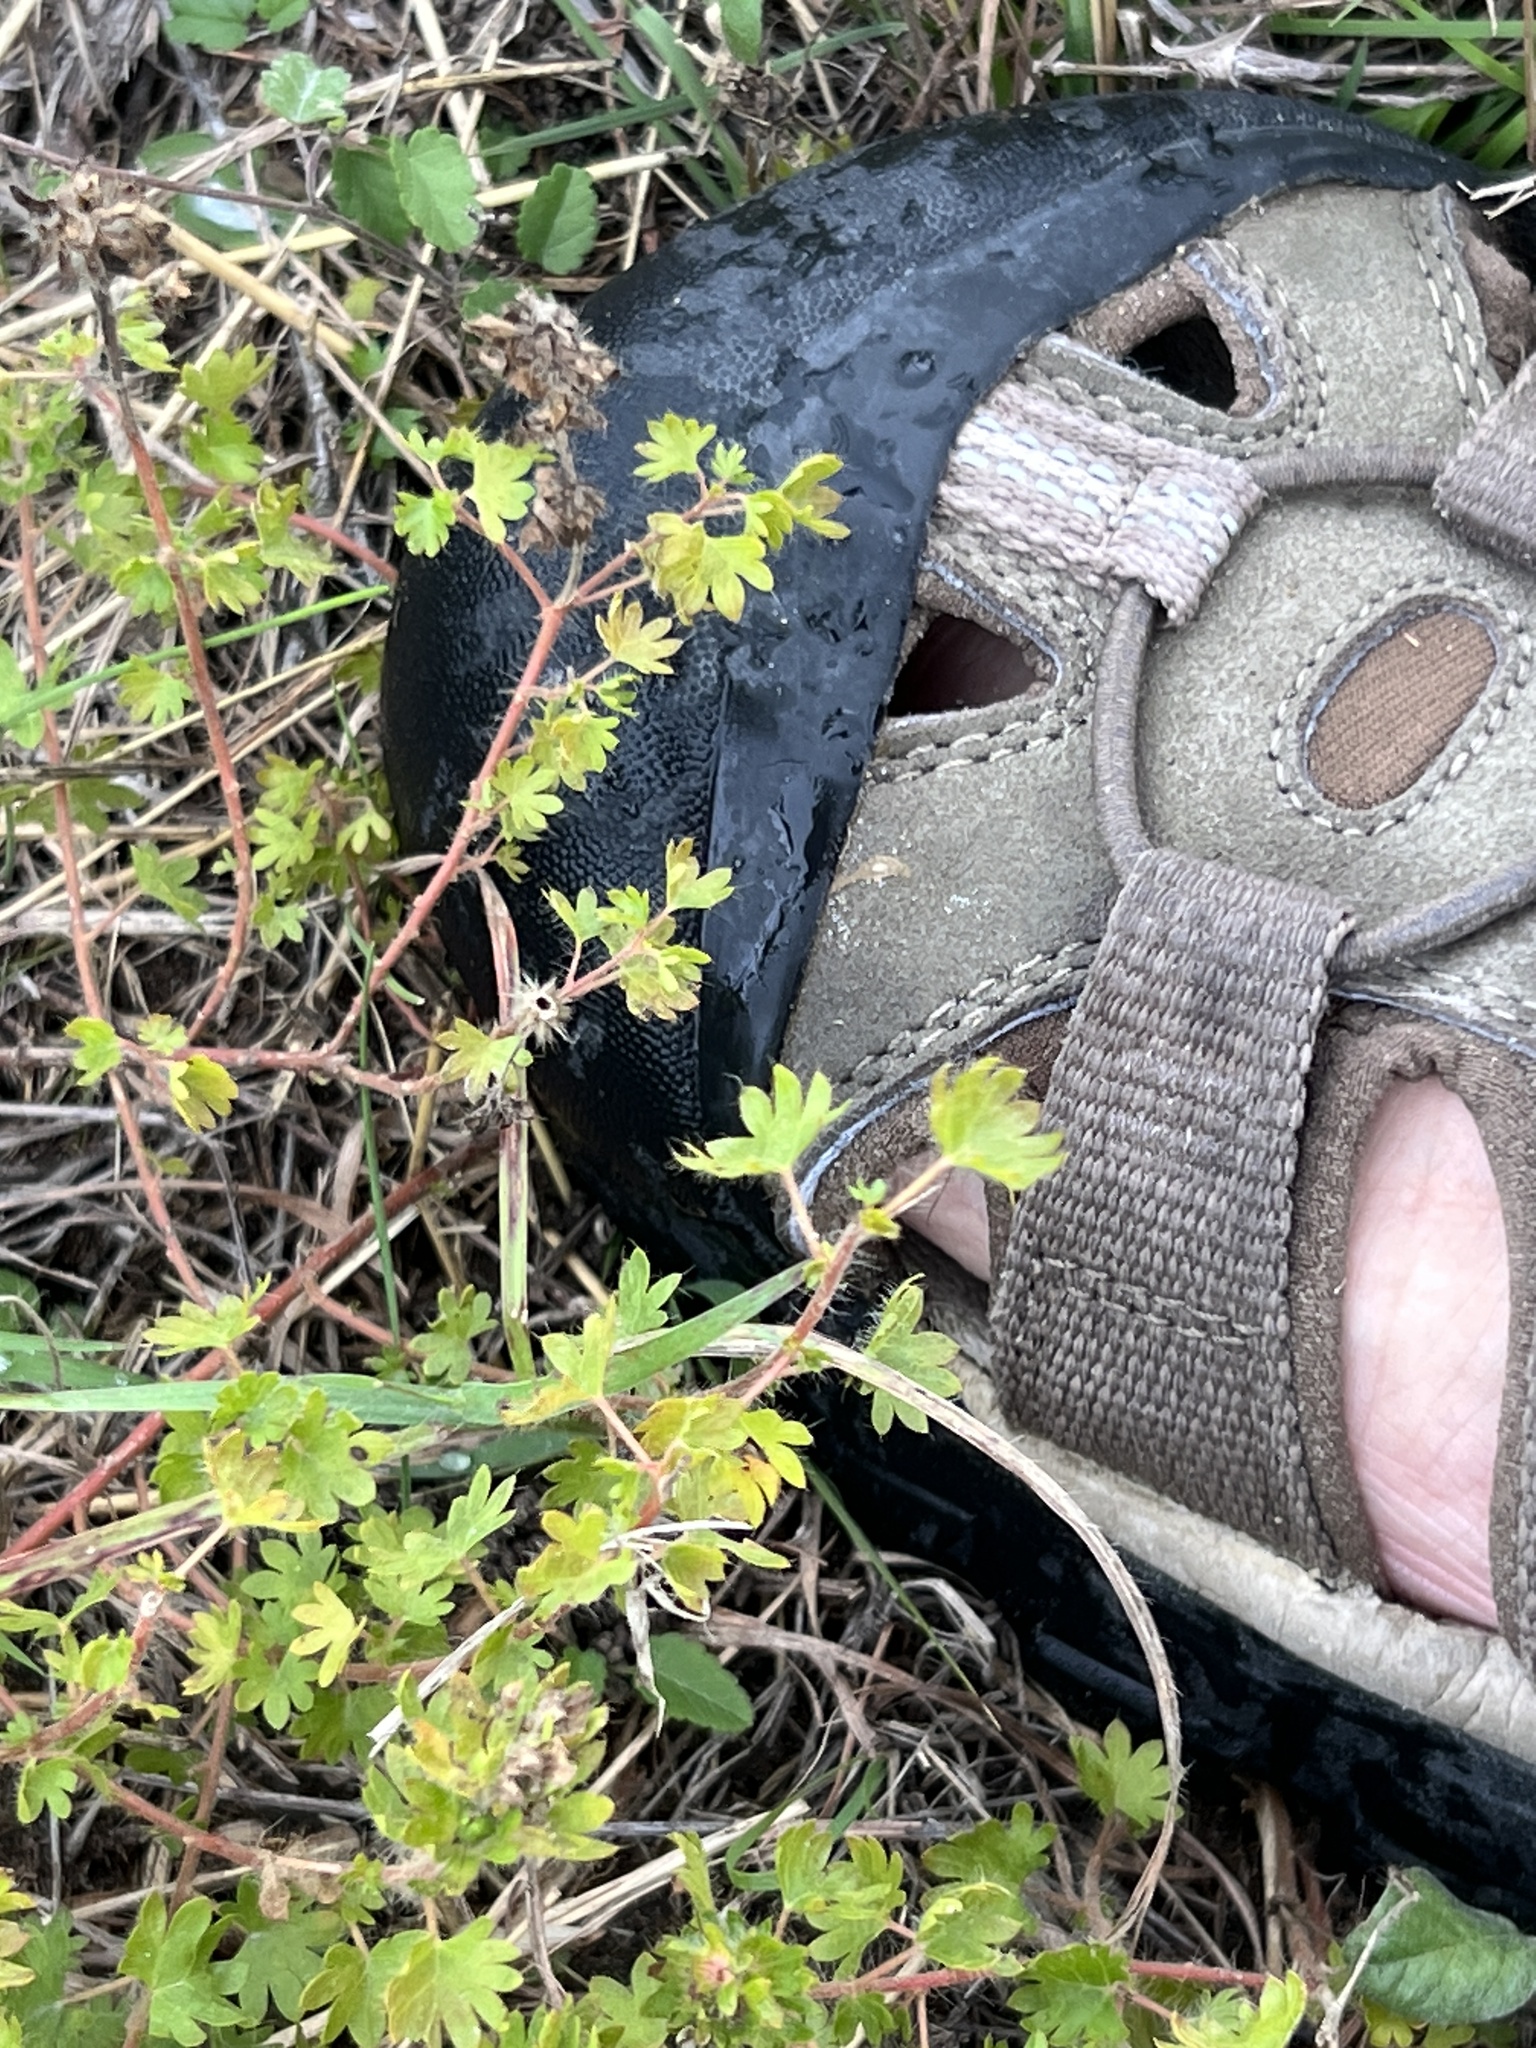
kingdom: Plantae
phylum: Tracheophyta
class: Magnoliopsida
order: Malpighiales
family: Euphorbiaceae
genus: Acalypha
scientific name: Acalypha radians
